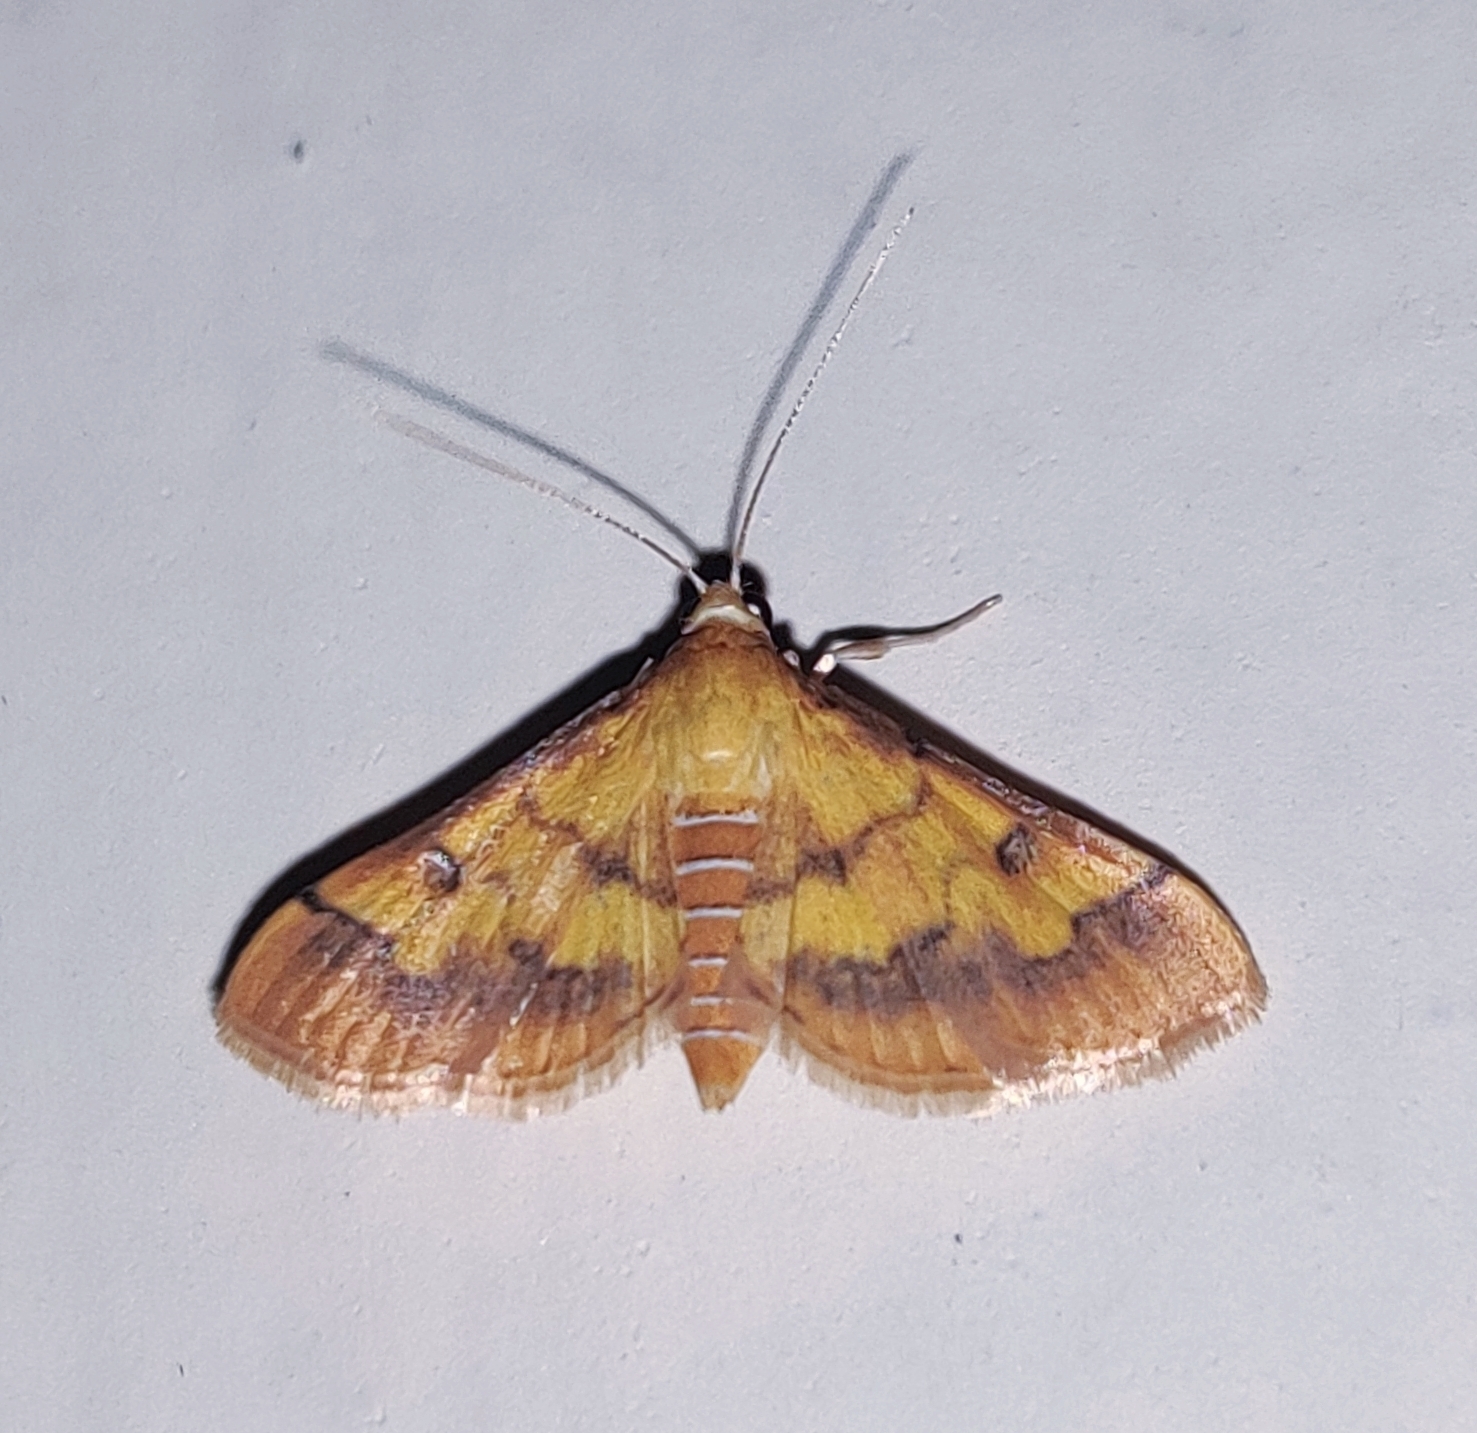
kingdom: Animalia
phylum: Arthropoda
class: Insecta
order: Lepidoptera
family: Crambidae
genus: Ischnurges
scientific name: Ischnurges luteomarginalis
